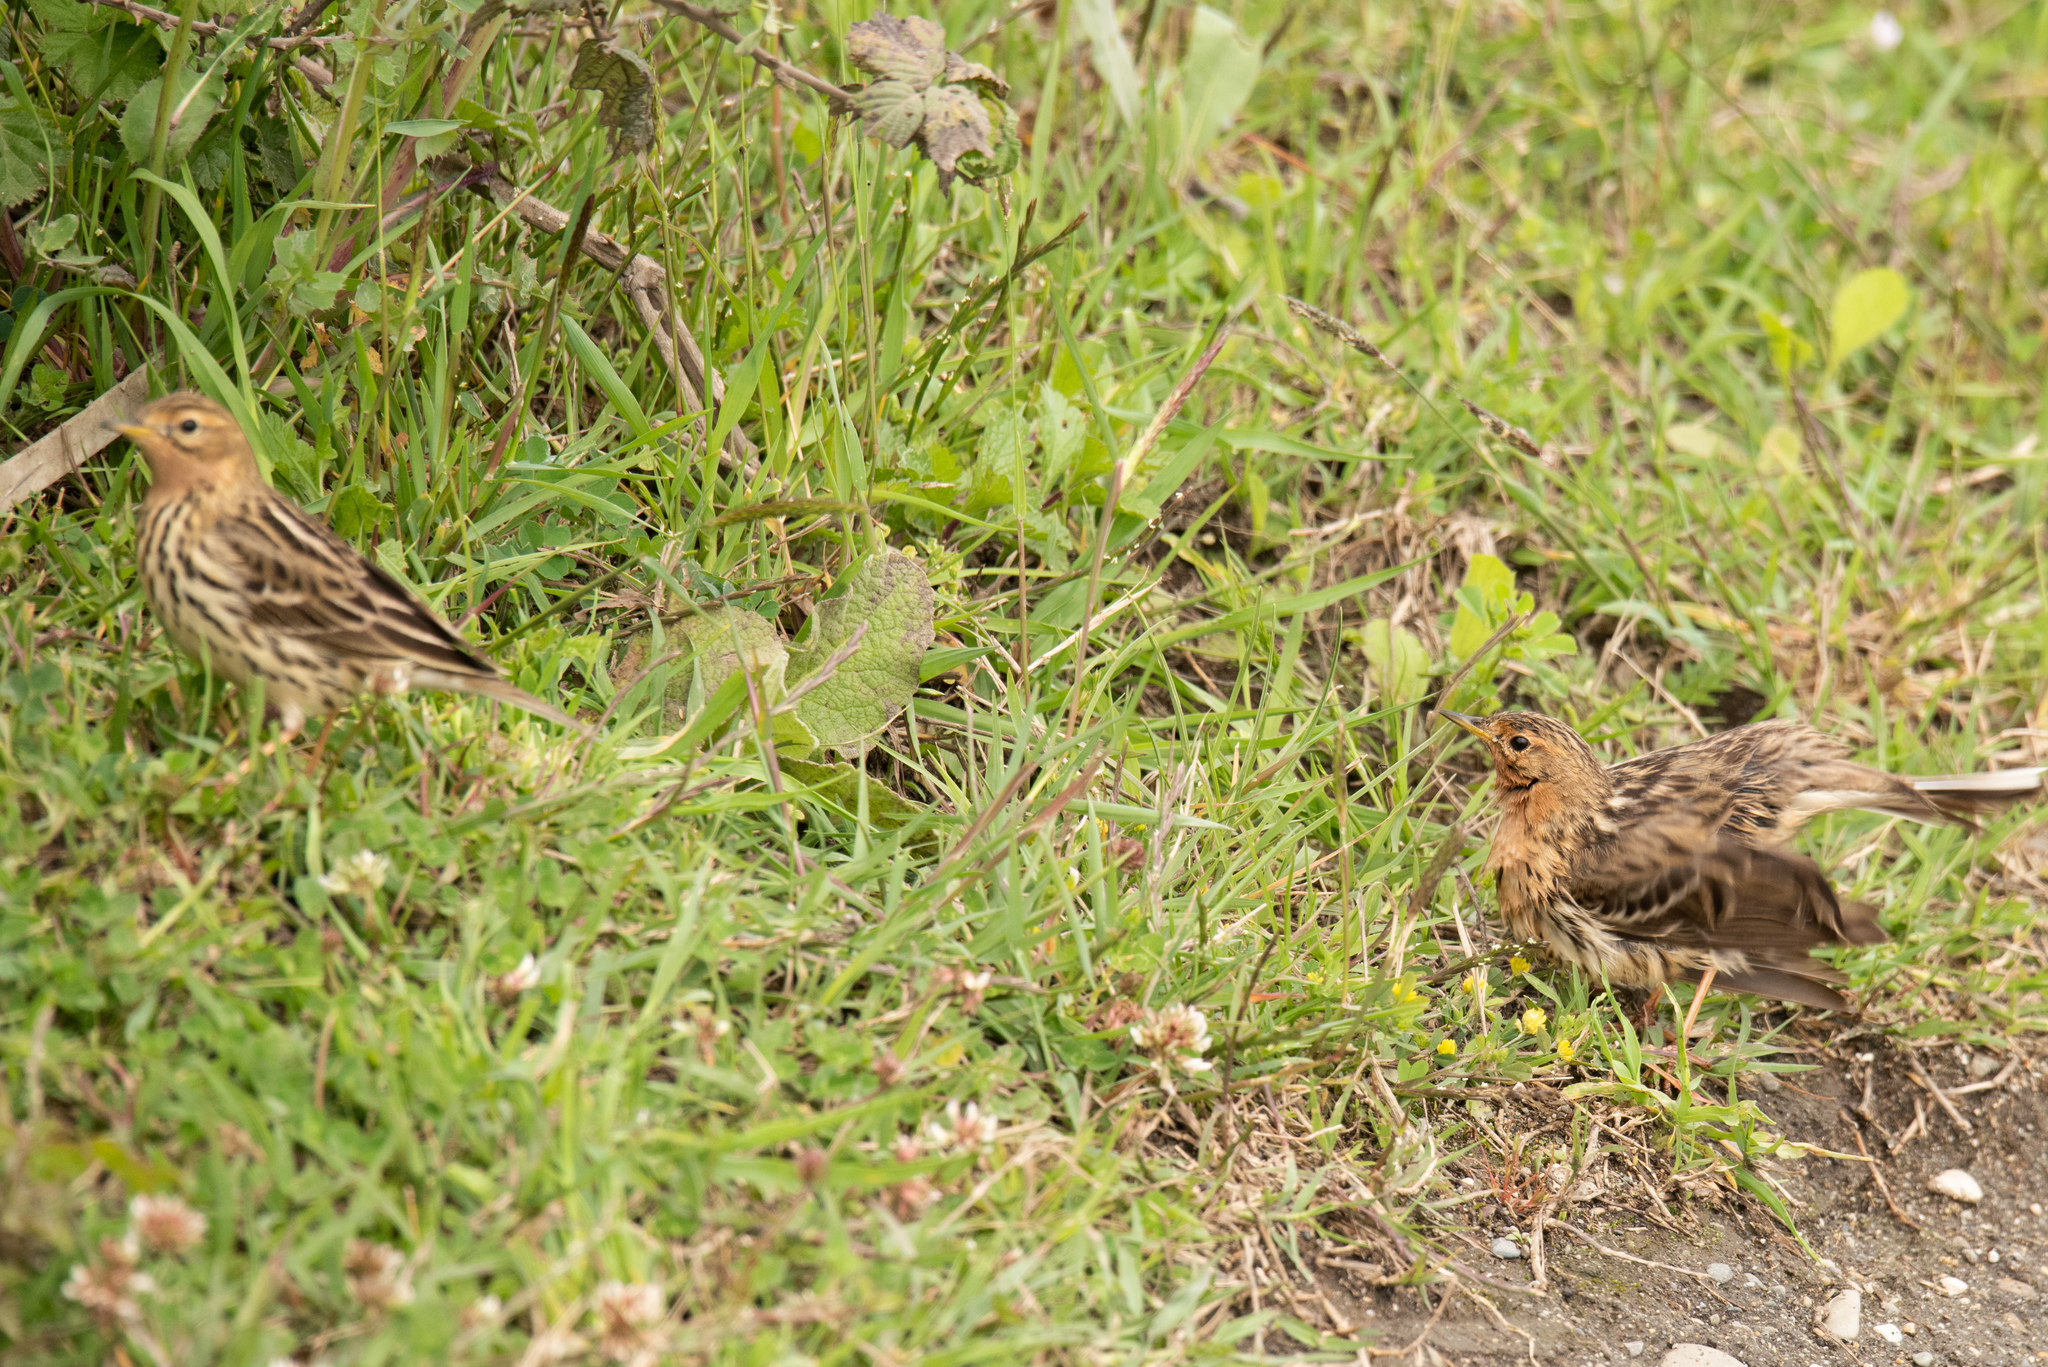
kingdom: Animalia
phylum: Chordata
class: Aves
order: Passeriformes
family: Motacillidae
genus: Anthus
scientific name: Anthus cervinus
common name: Red-throated pipit
